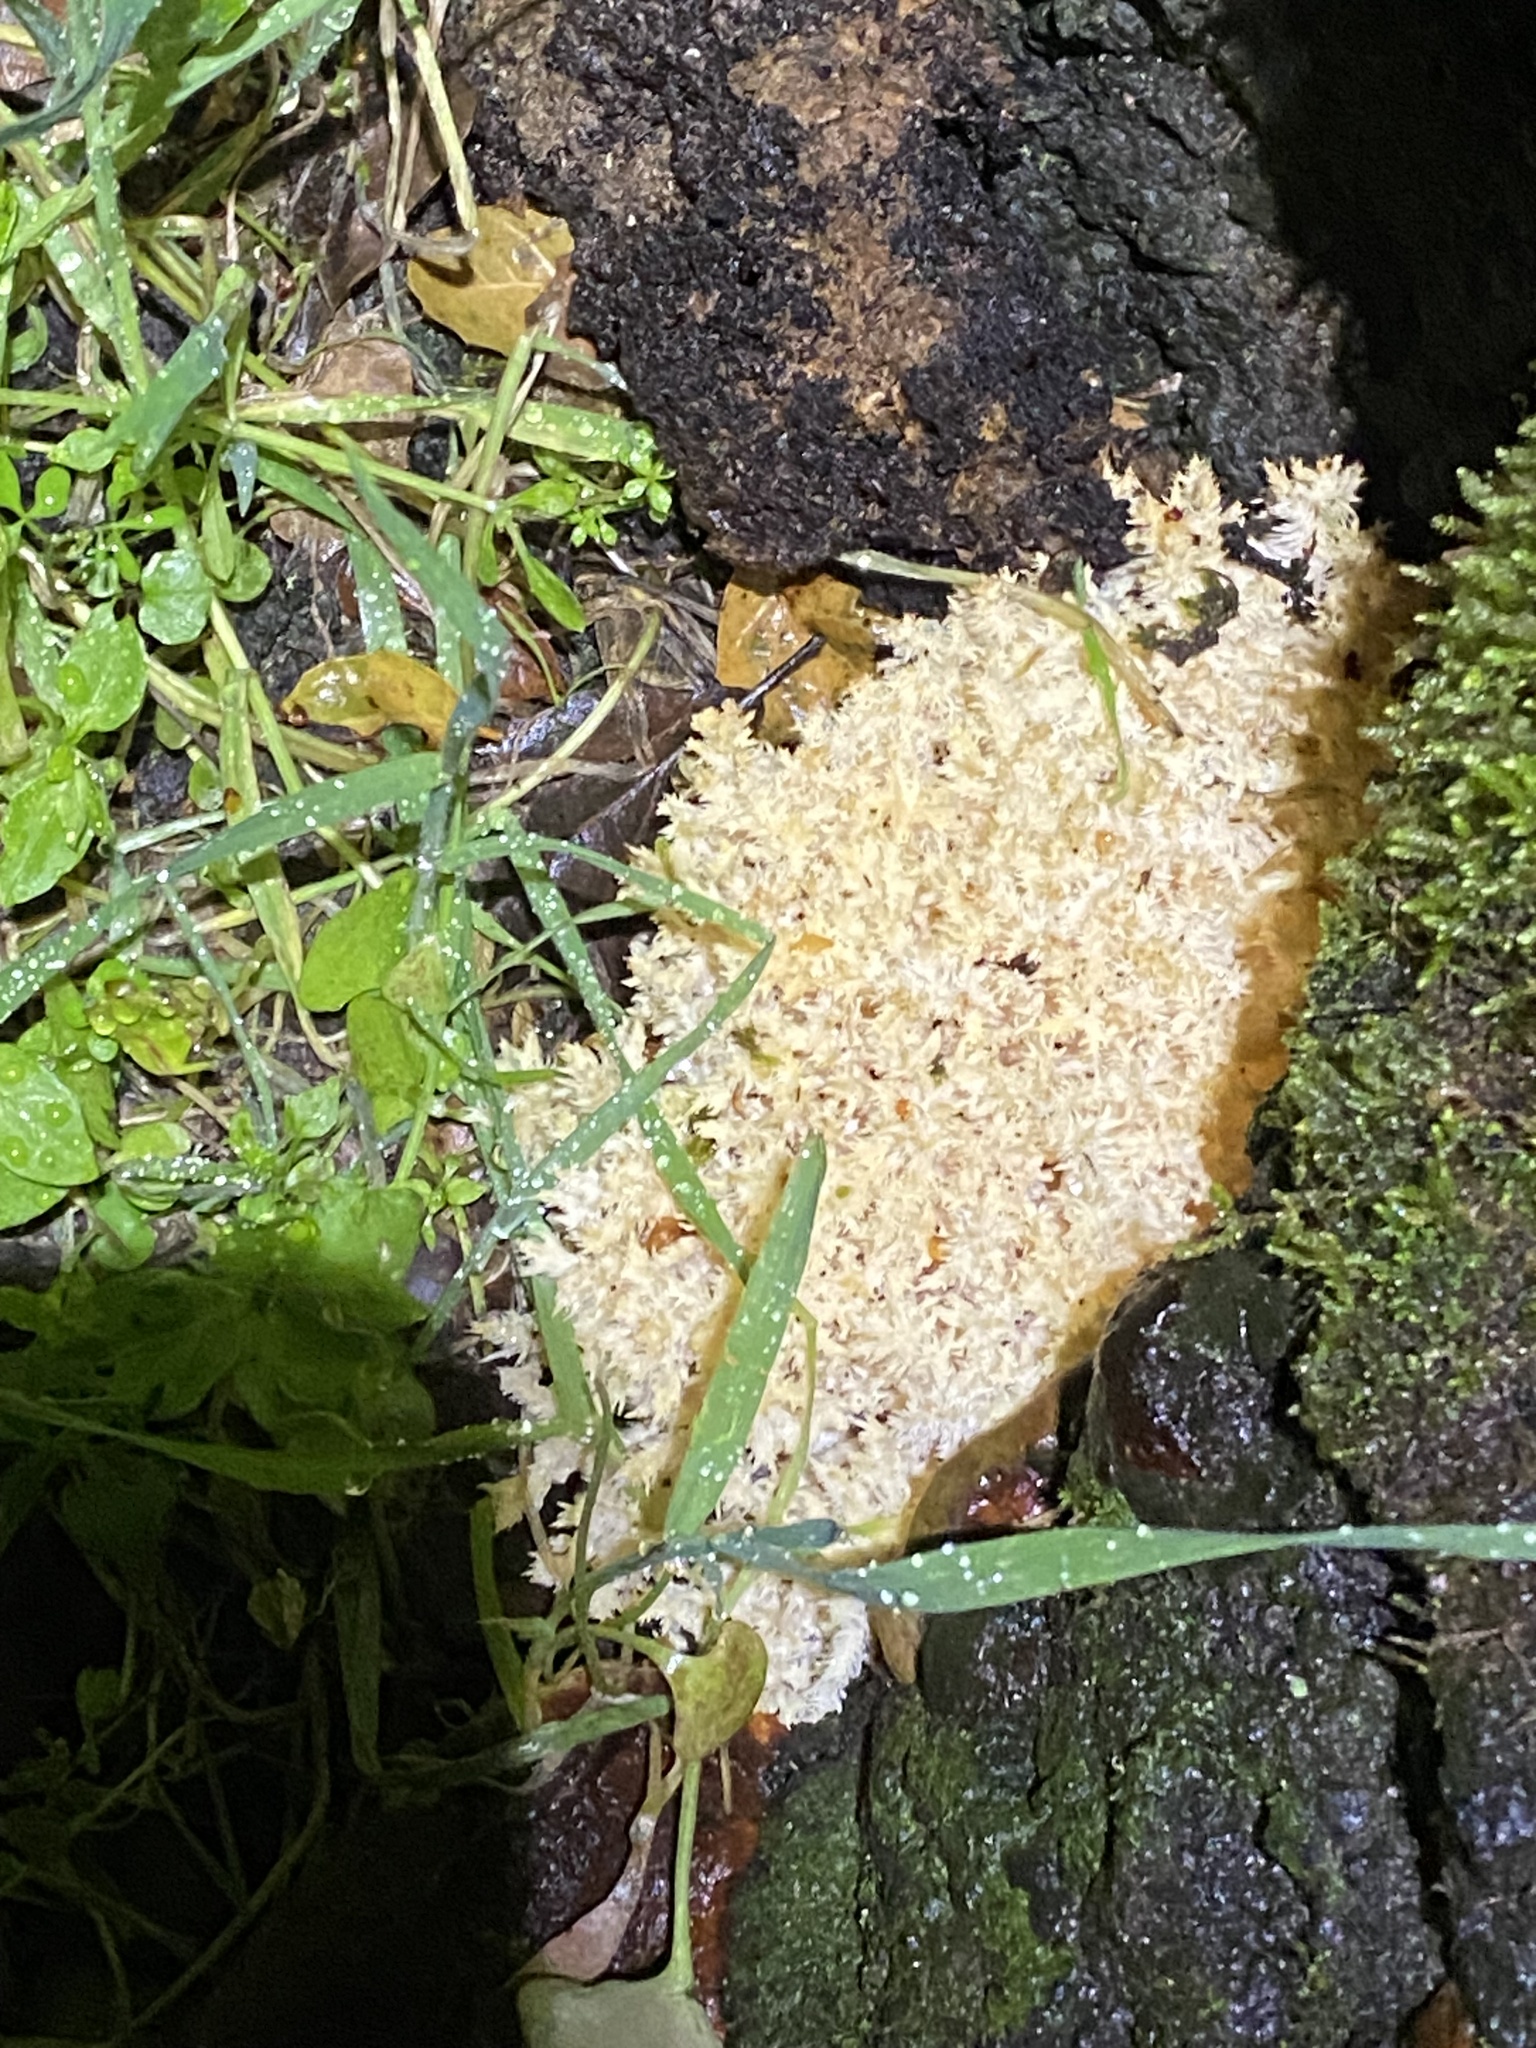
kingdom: Fungi
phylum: Basidiomycota
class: Agaricomycetes
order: Russulales
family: Hericiaceae
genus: Hericium
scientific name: Hericium coralloides
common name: Coral tooth
